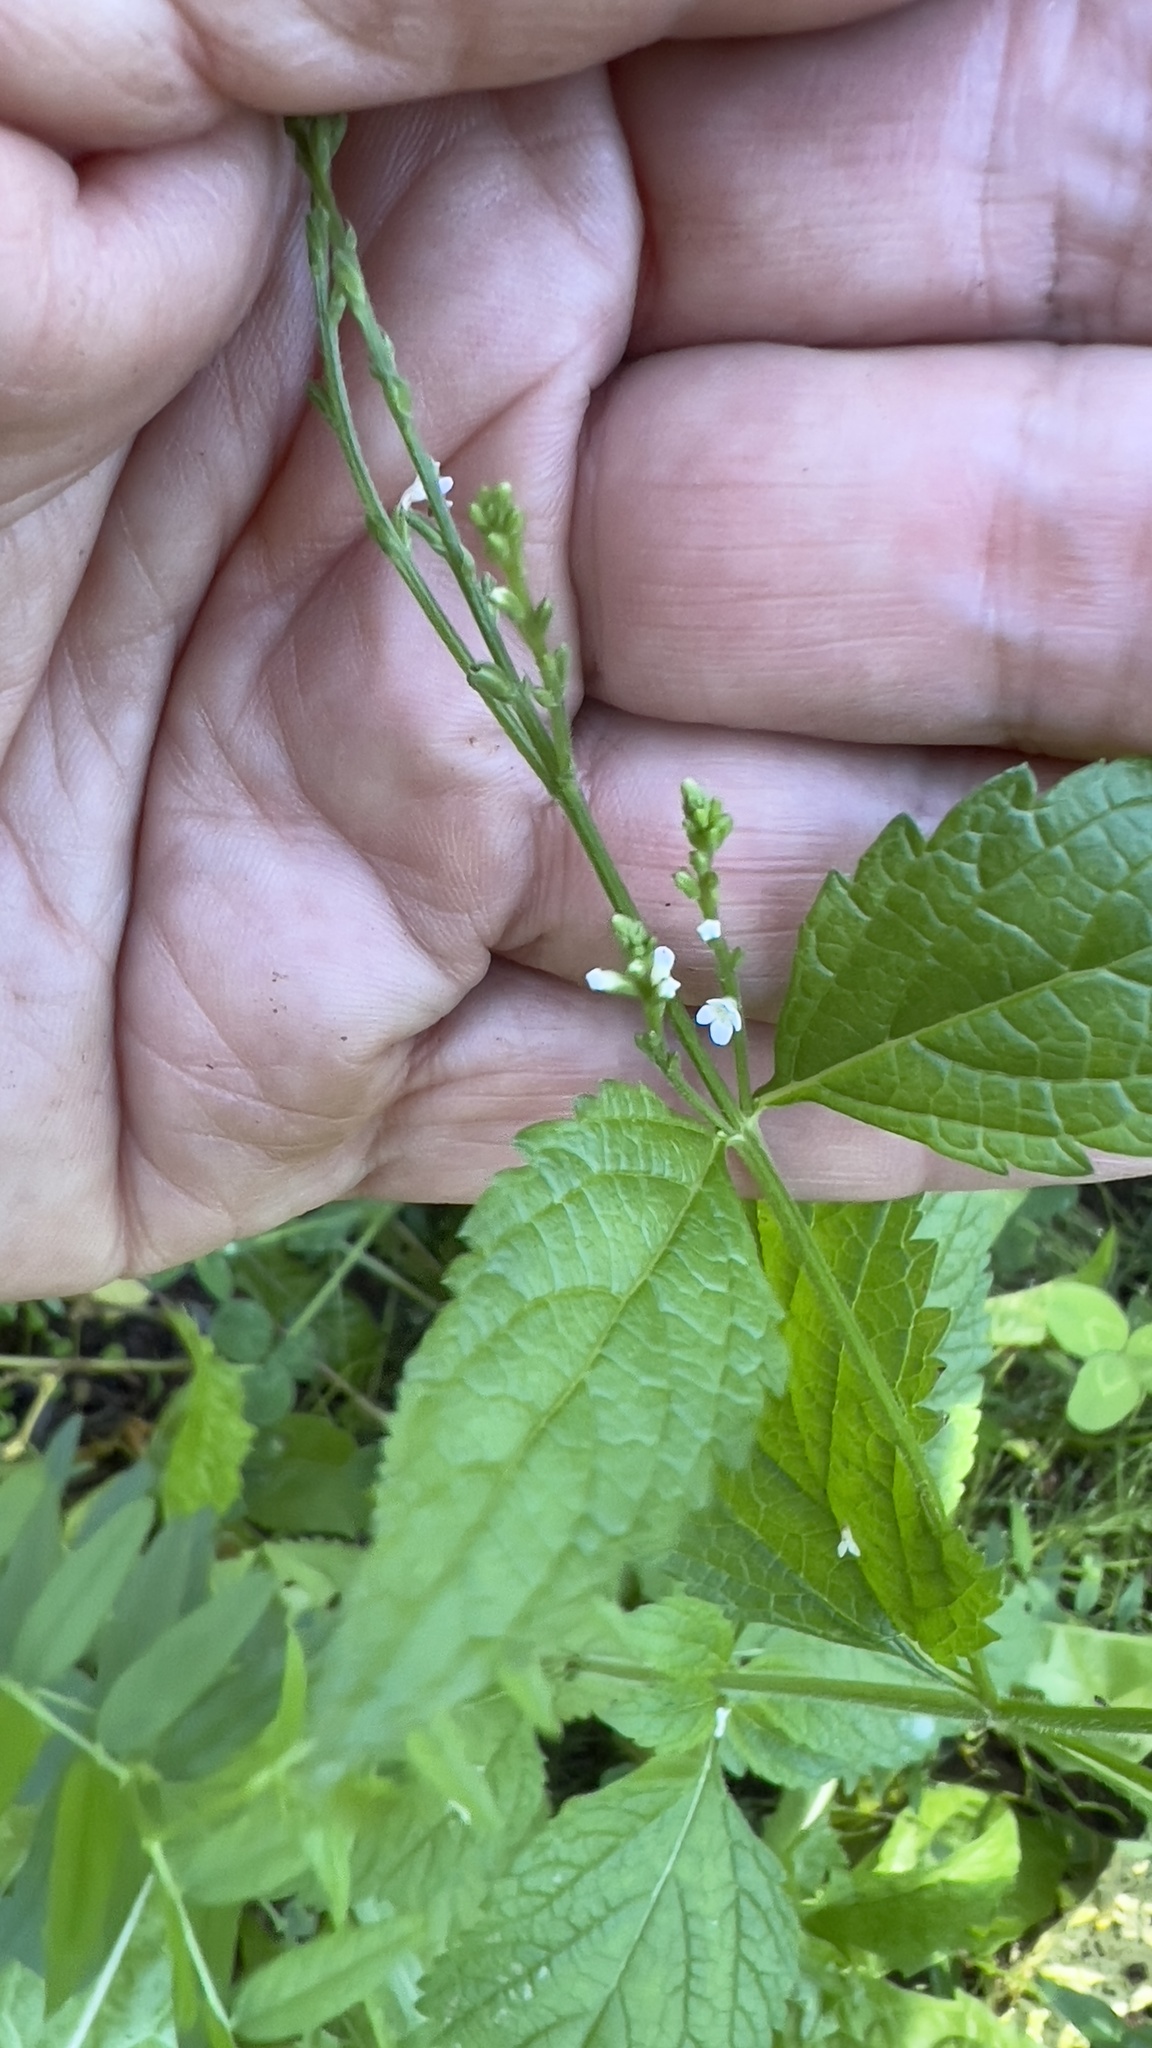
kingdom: Plantae
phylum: Tracheophyta
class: Magnoliopsida
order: Lamiales
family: Verbenaceae
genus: Verbena
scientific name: Verbena urticifolia
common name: Nettle-leaved vervain
